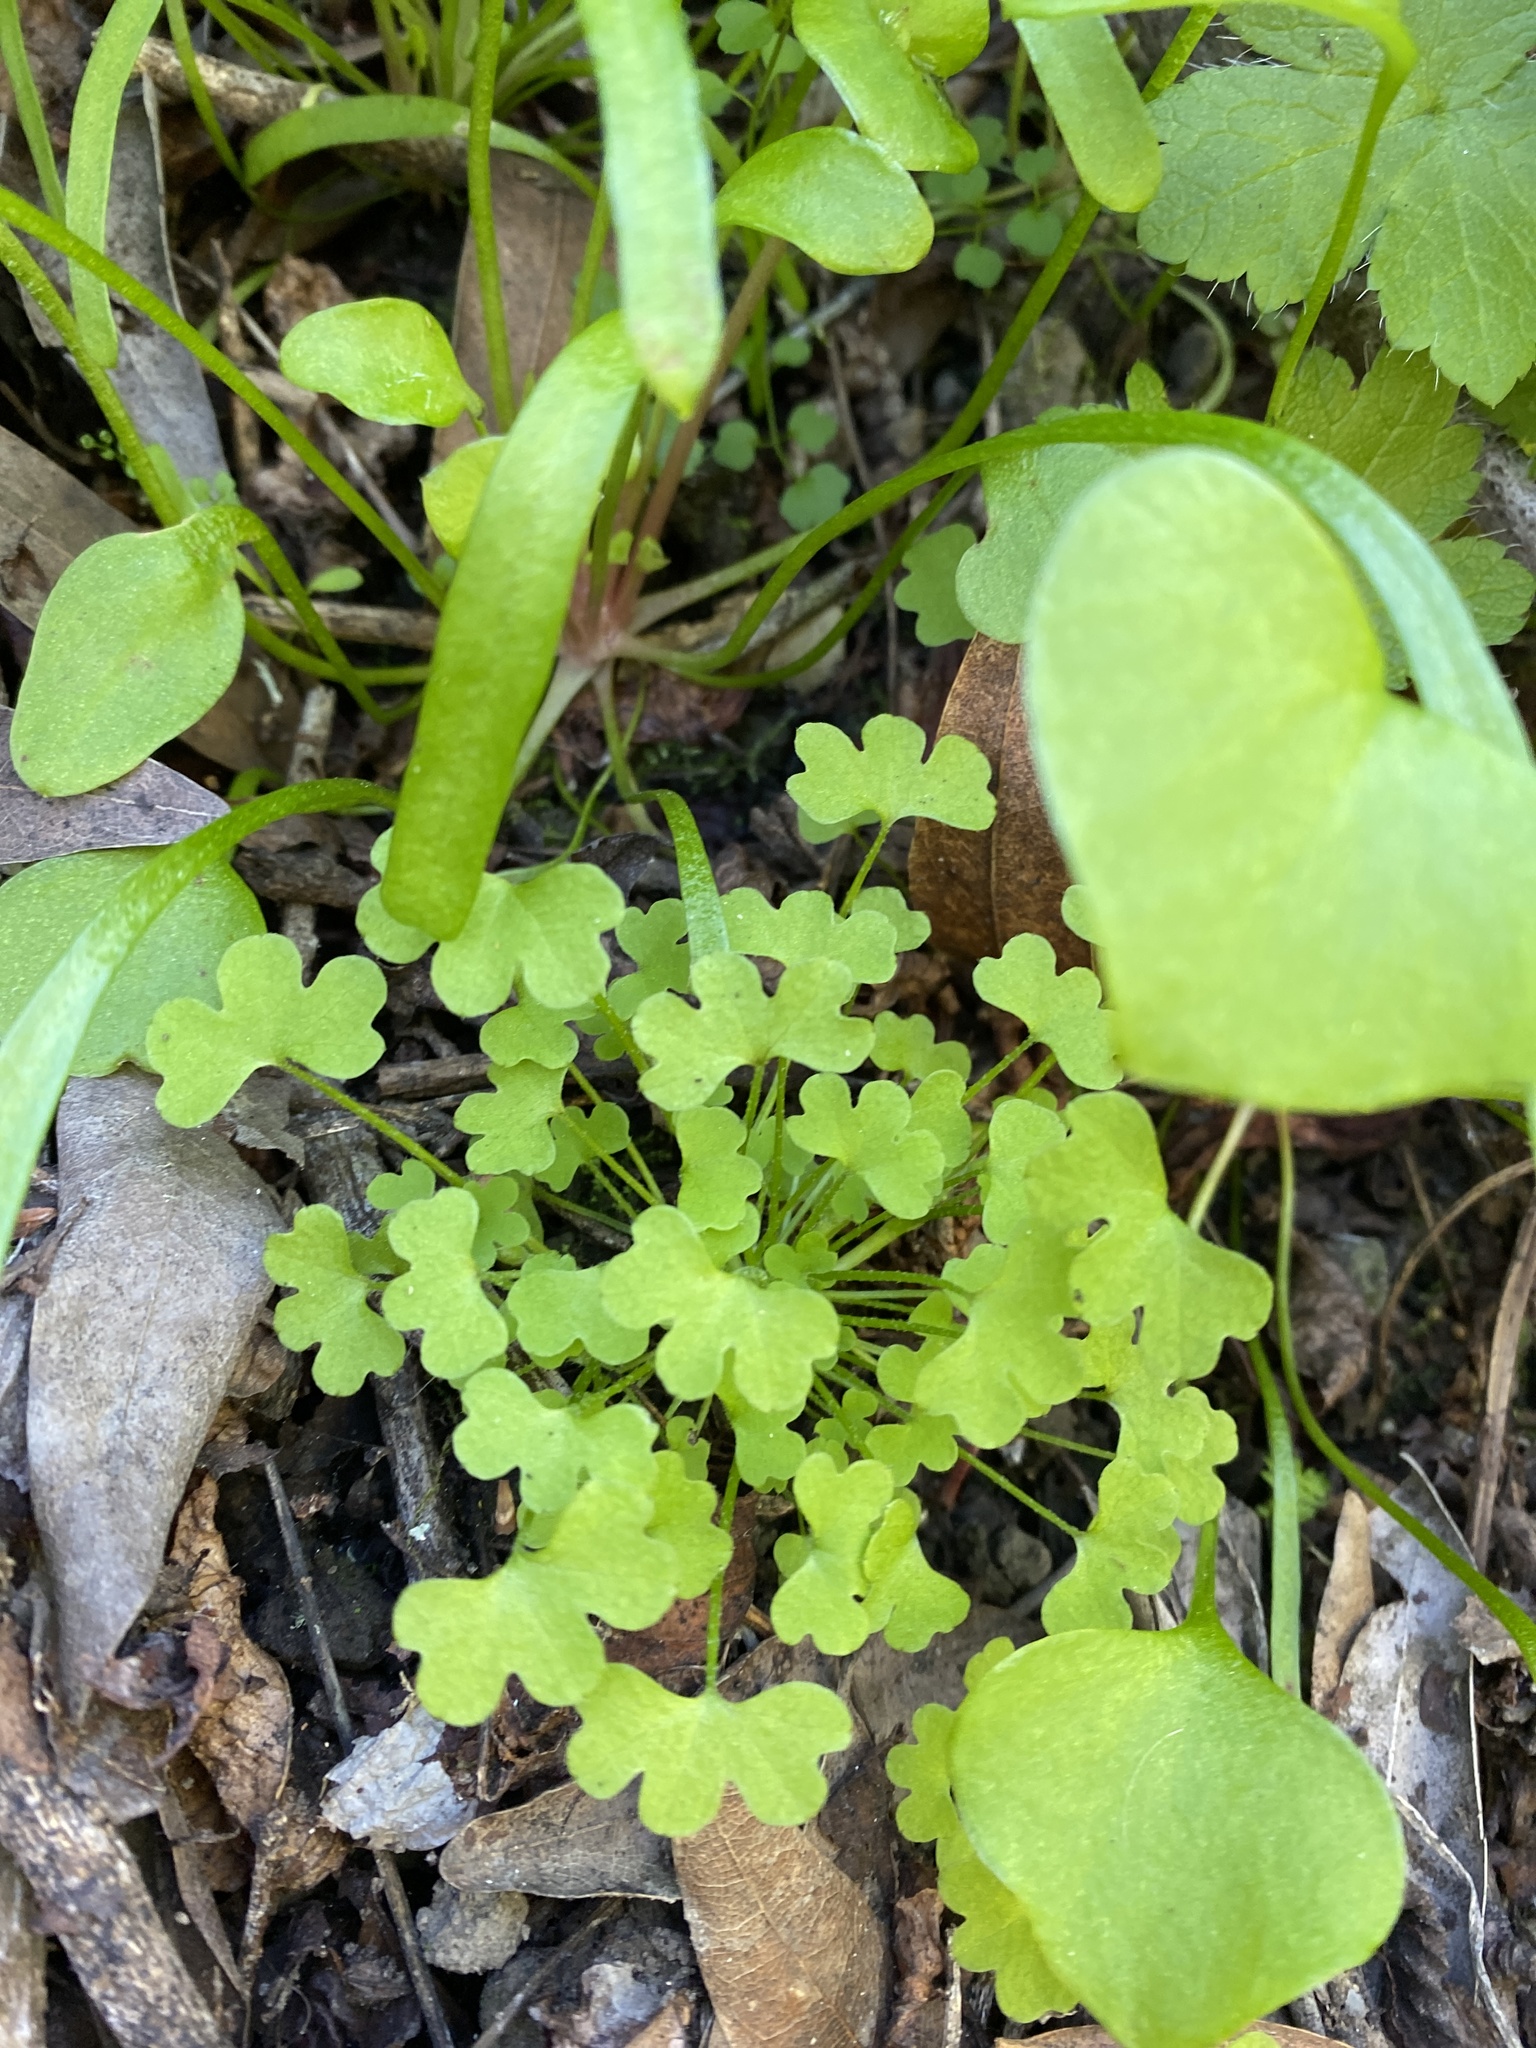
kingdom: Plantae
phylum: Tracheophyta
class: Magnoliopsida
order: Apiales
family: Apiaceae
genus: Bowlesia
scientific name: Bowlesia incana
